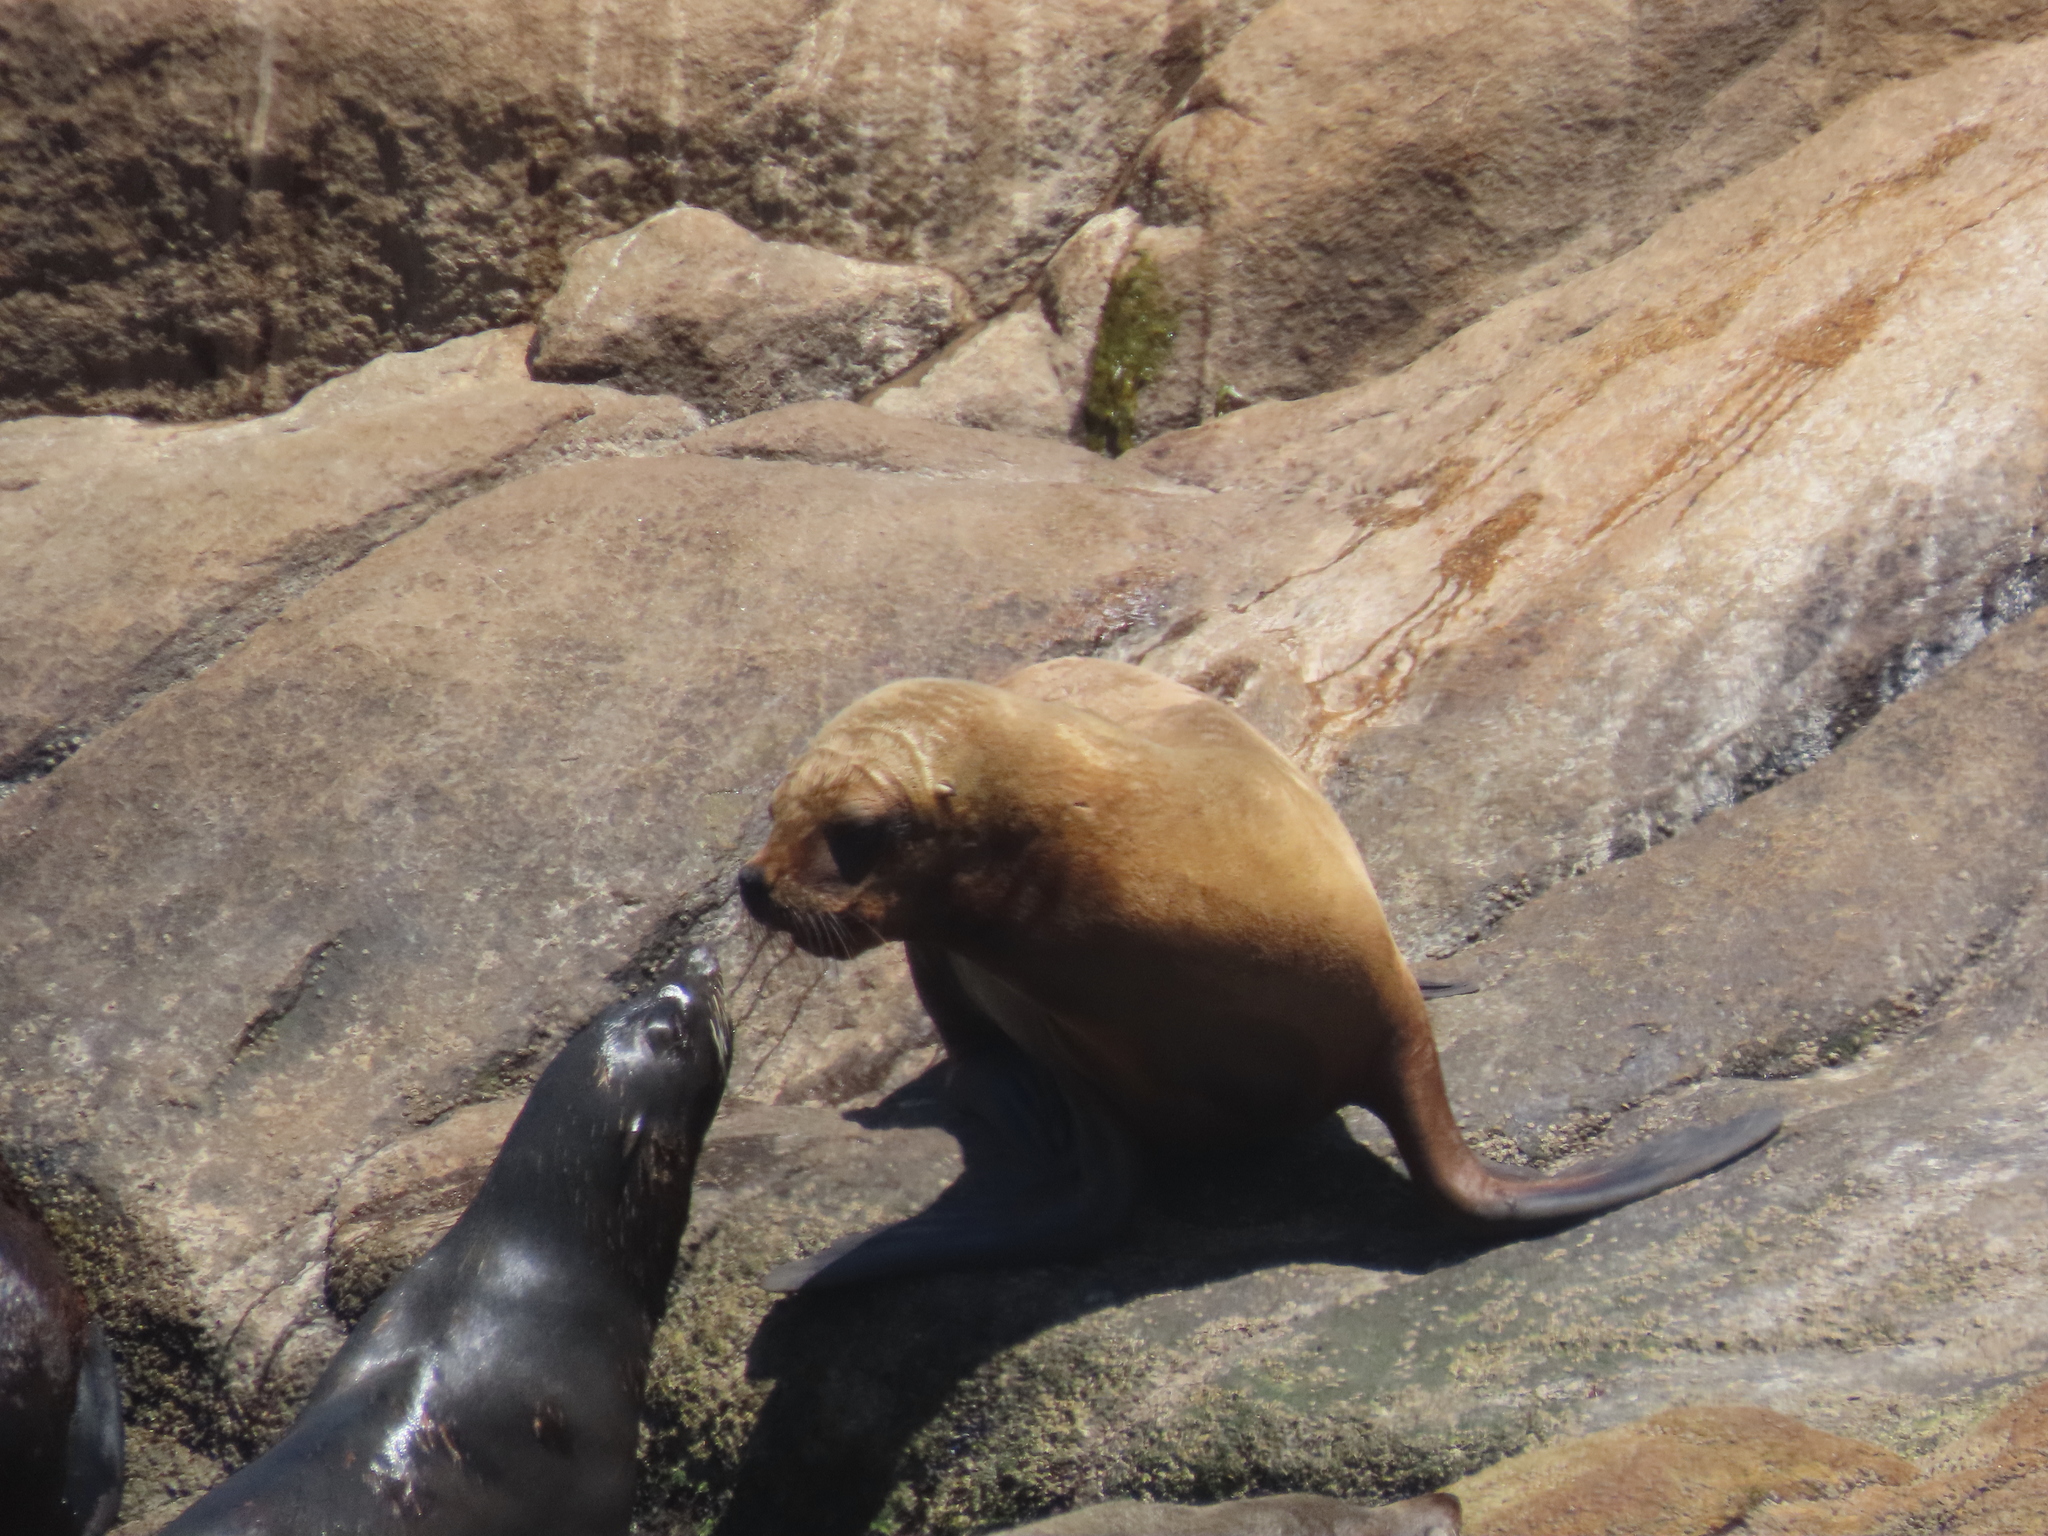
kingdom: Animalia
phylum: Chordata
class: Mammalia
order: Carnivora
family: Otariidae
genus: Otaria
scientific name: Otaria byronia
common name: South american sea lion
